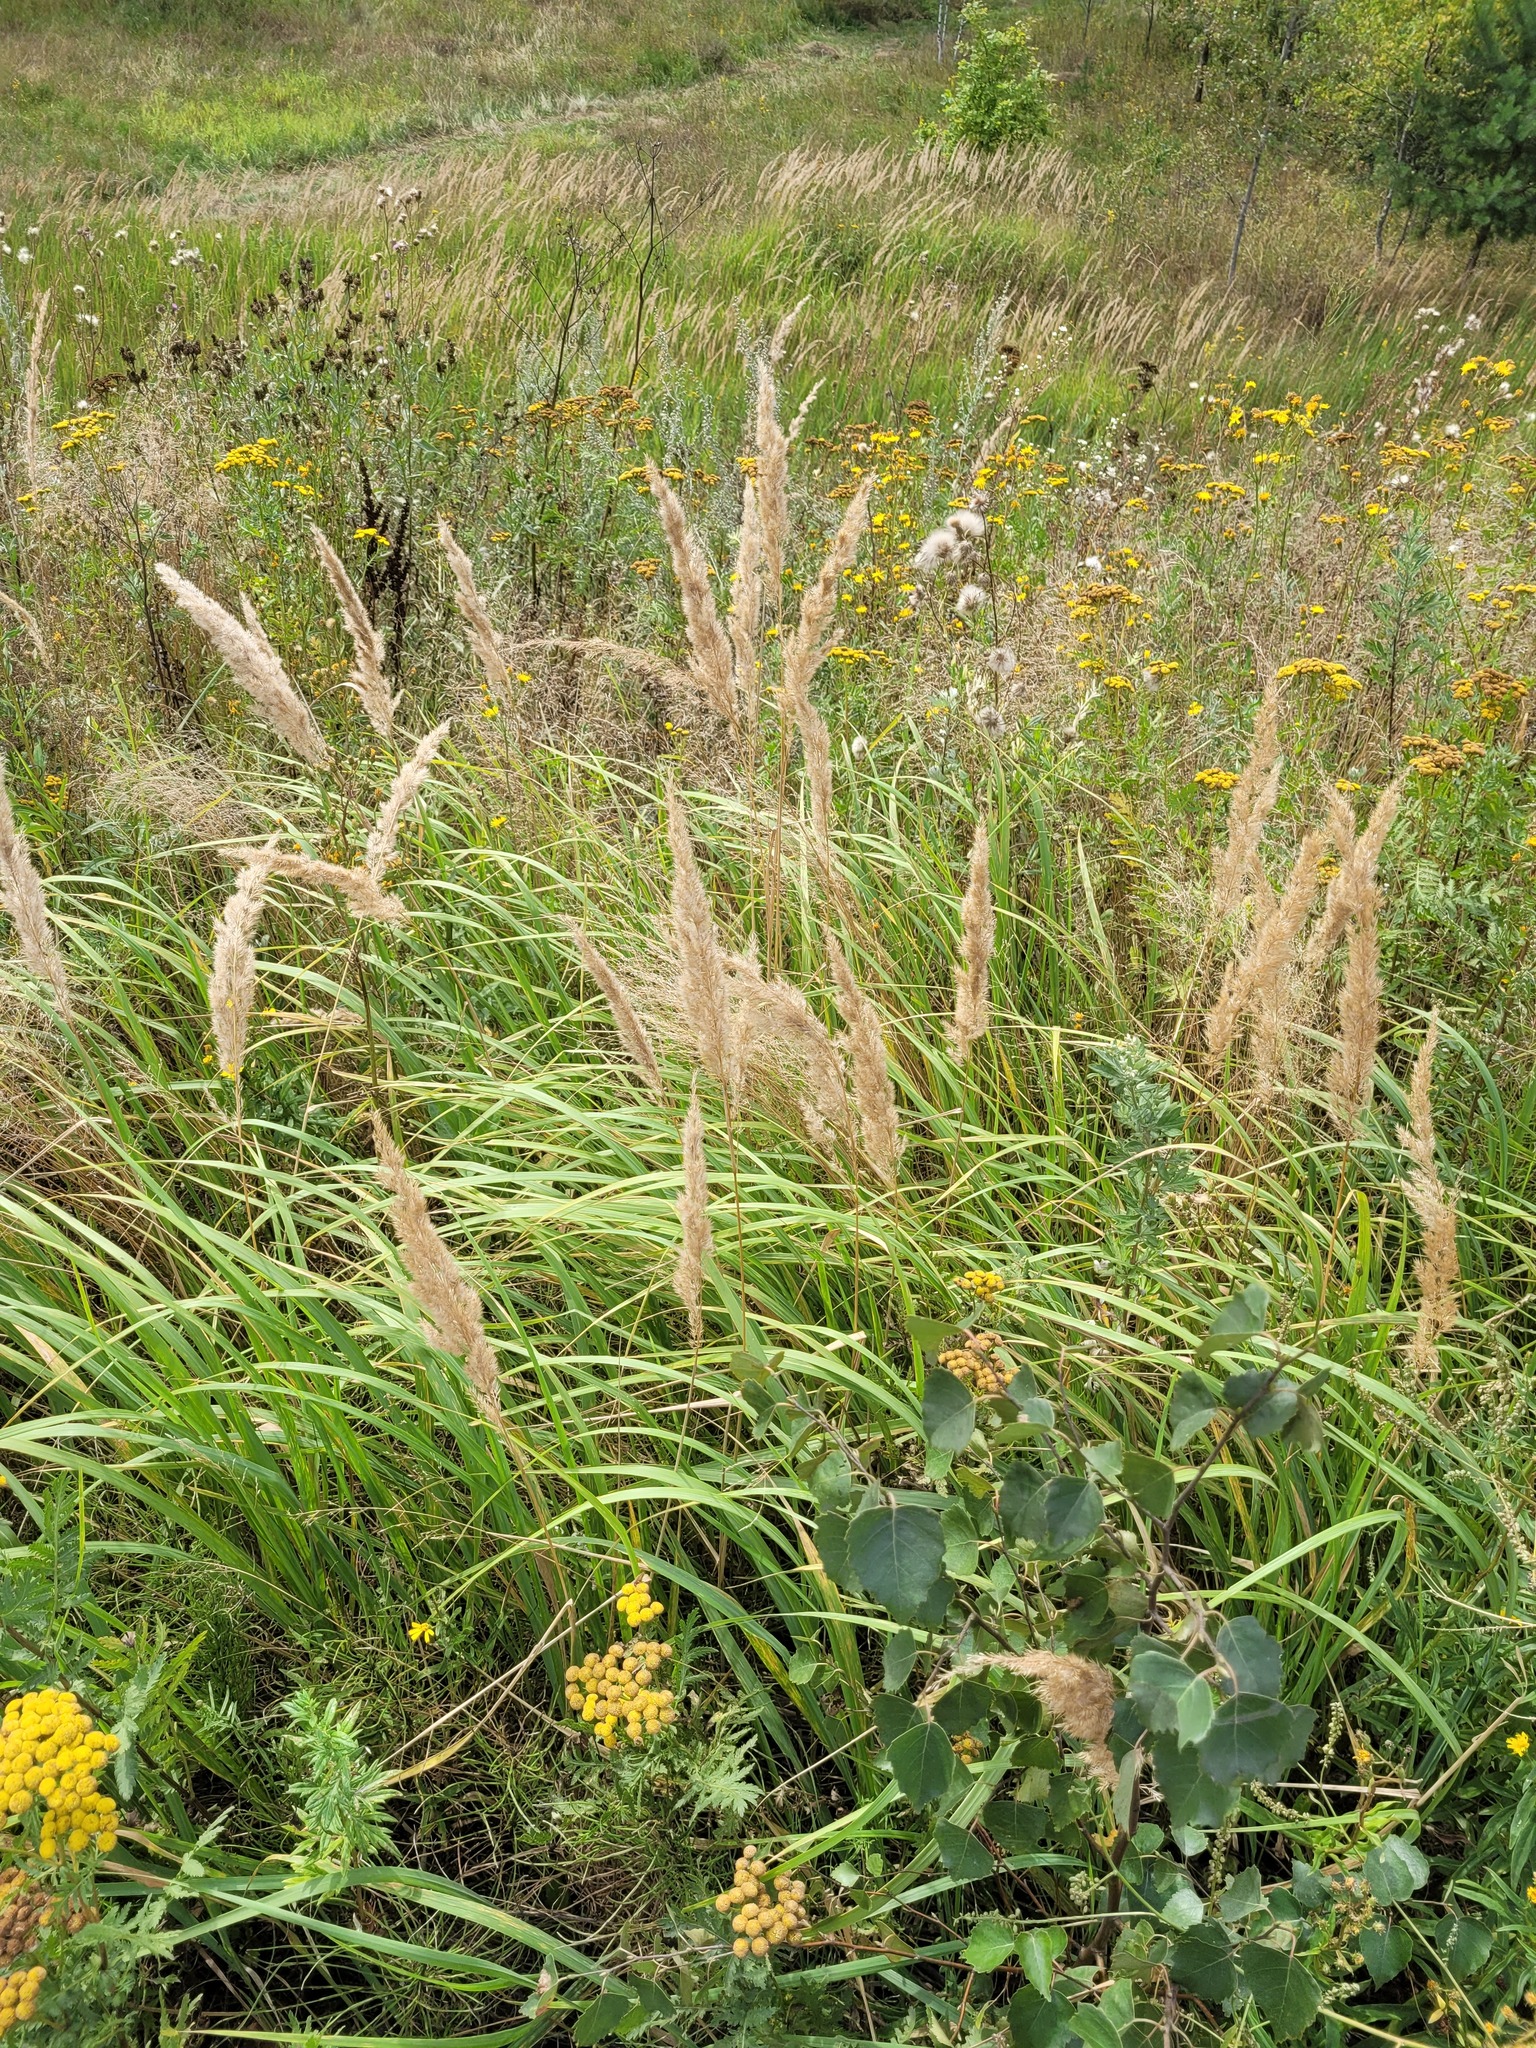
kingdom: Plantae
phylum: Tracheophyta
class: Liliopsida
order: Poales
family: Poaceae
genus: Calamagrostis
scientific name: Calamagrostis epigejos
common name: Wood small-reed
